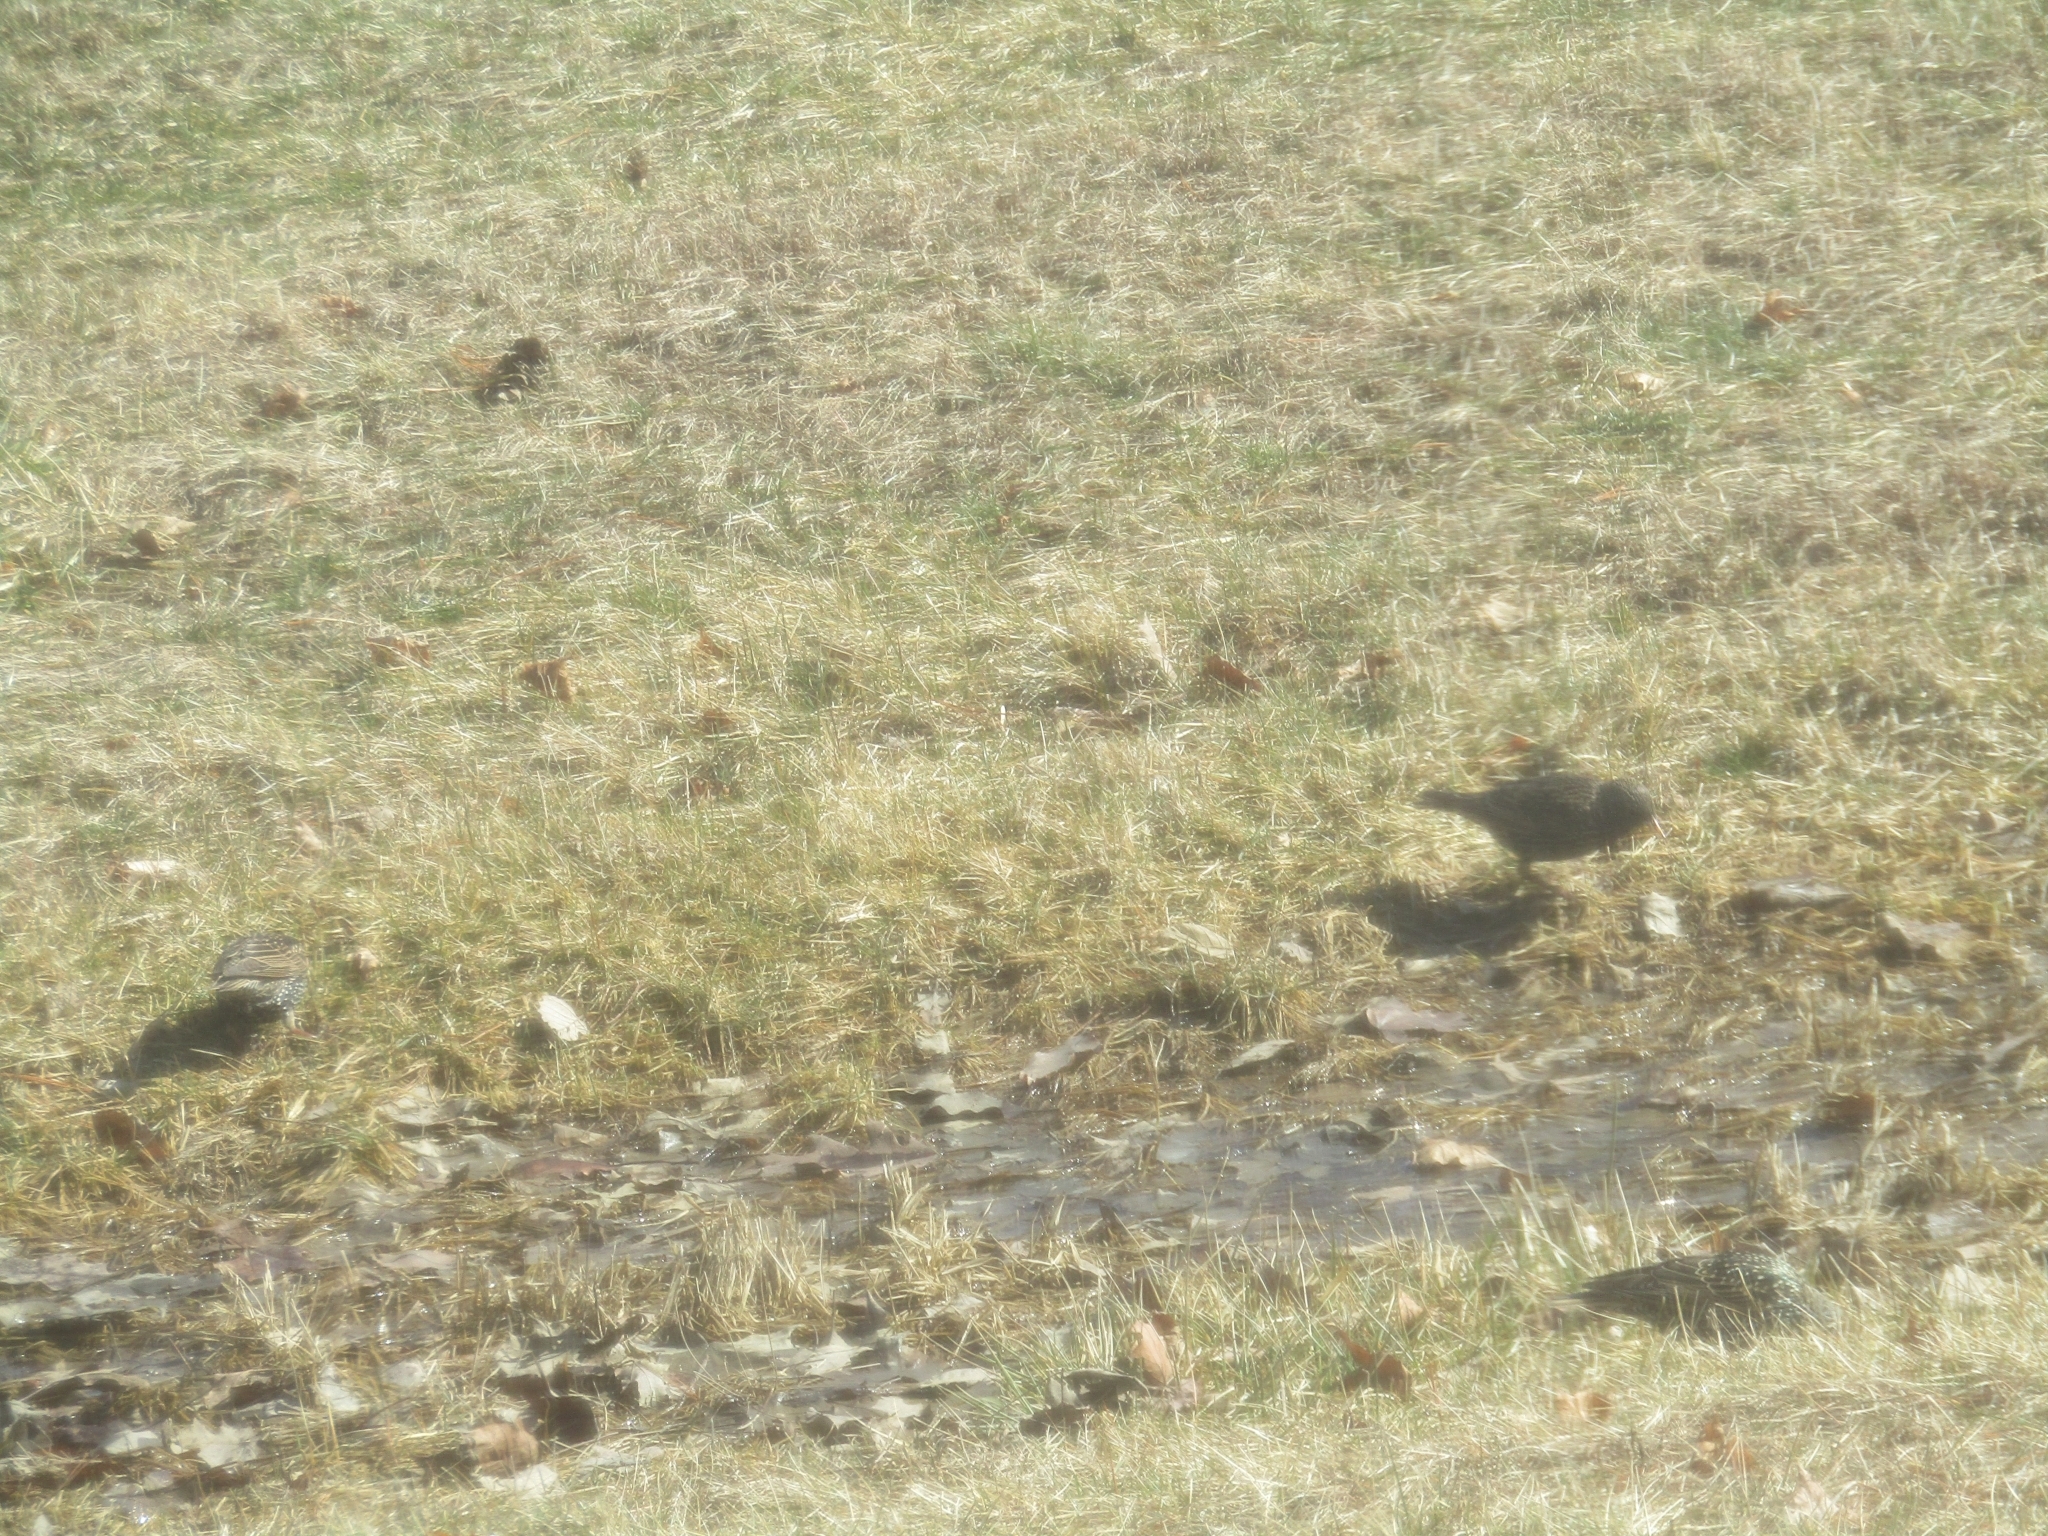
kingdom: Animalia
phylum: Chordata
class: Aves
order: Passeriformes
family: Sturnidae
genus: Sturnus
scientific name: Sturnus vulgaris
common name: Common starling
